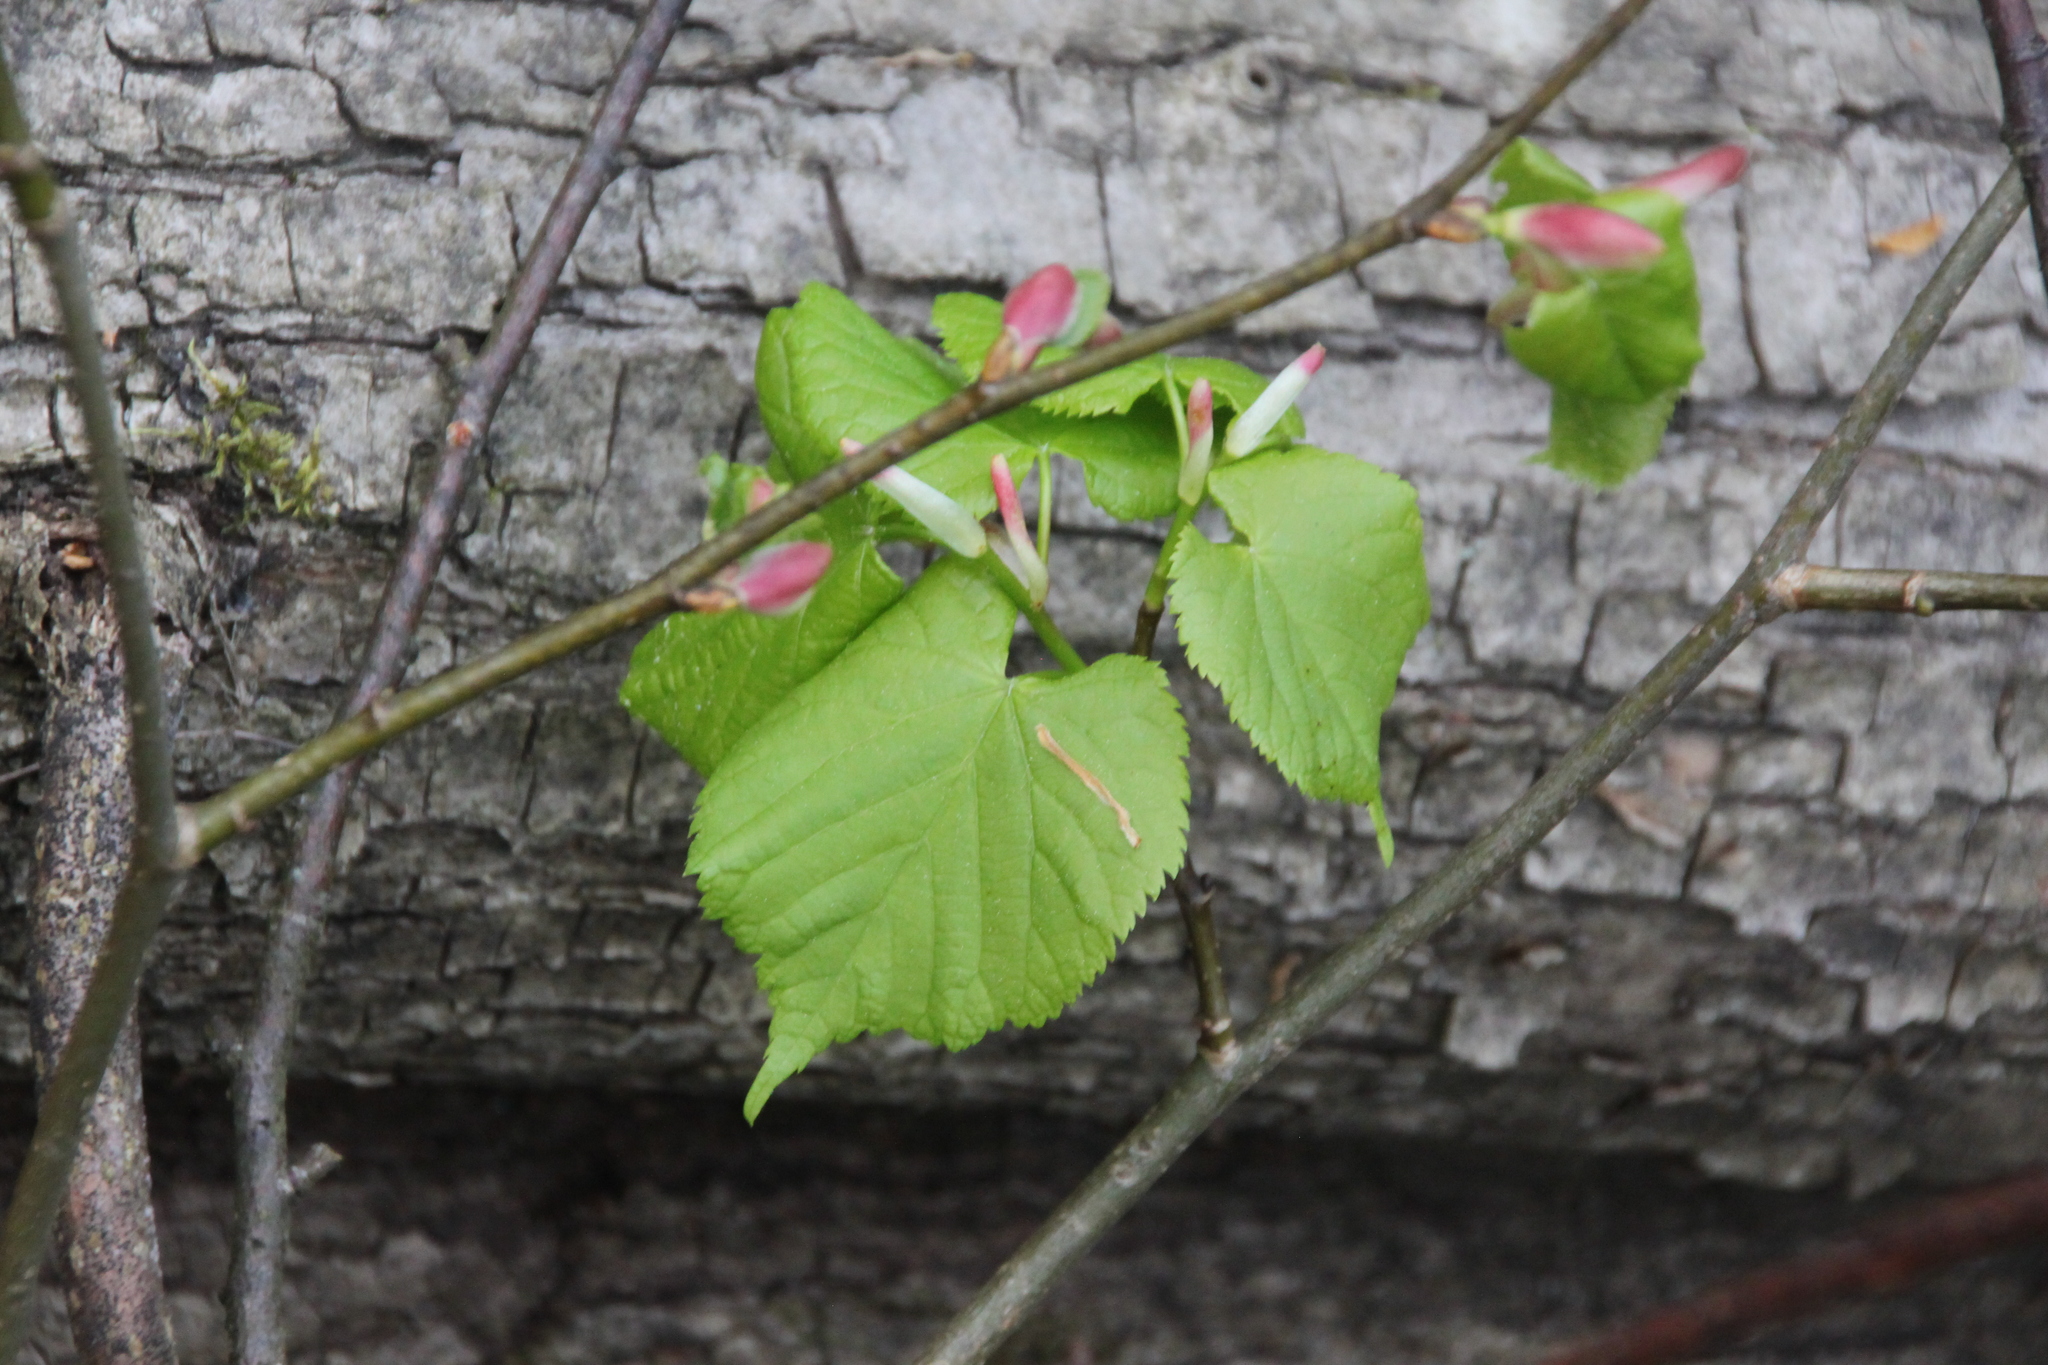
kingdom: Plantae
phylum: Tracheophyta
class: Magnoliopsida
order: Malvales
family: Malvaceae
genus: Tilia
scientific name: Tilia cordata
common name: Small-leaved lime
